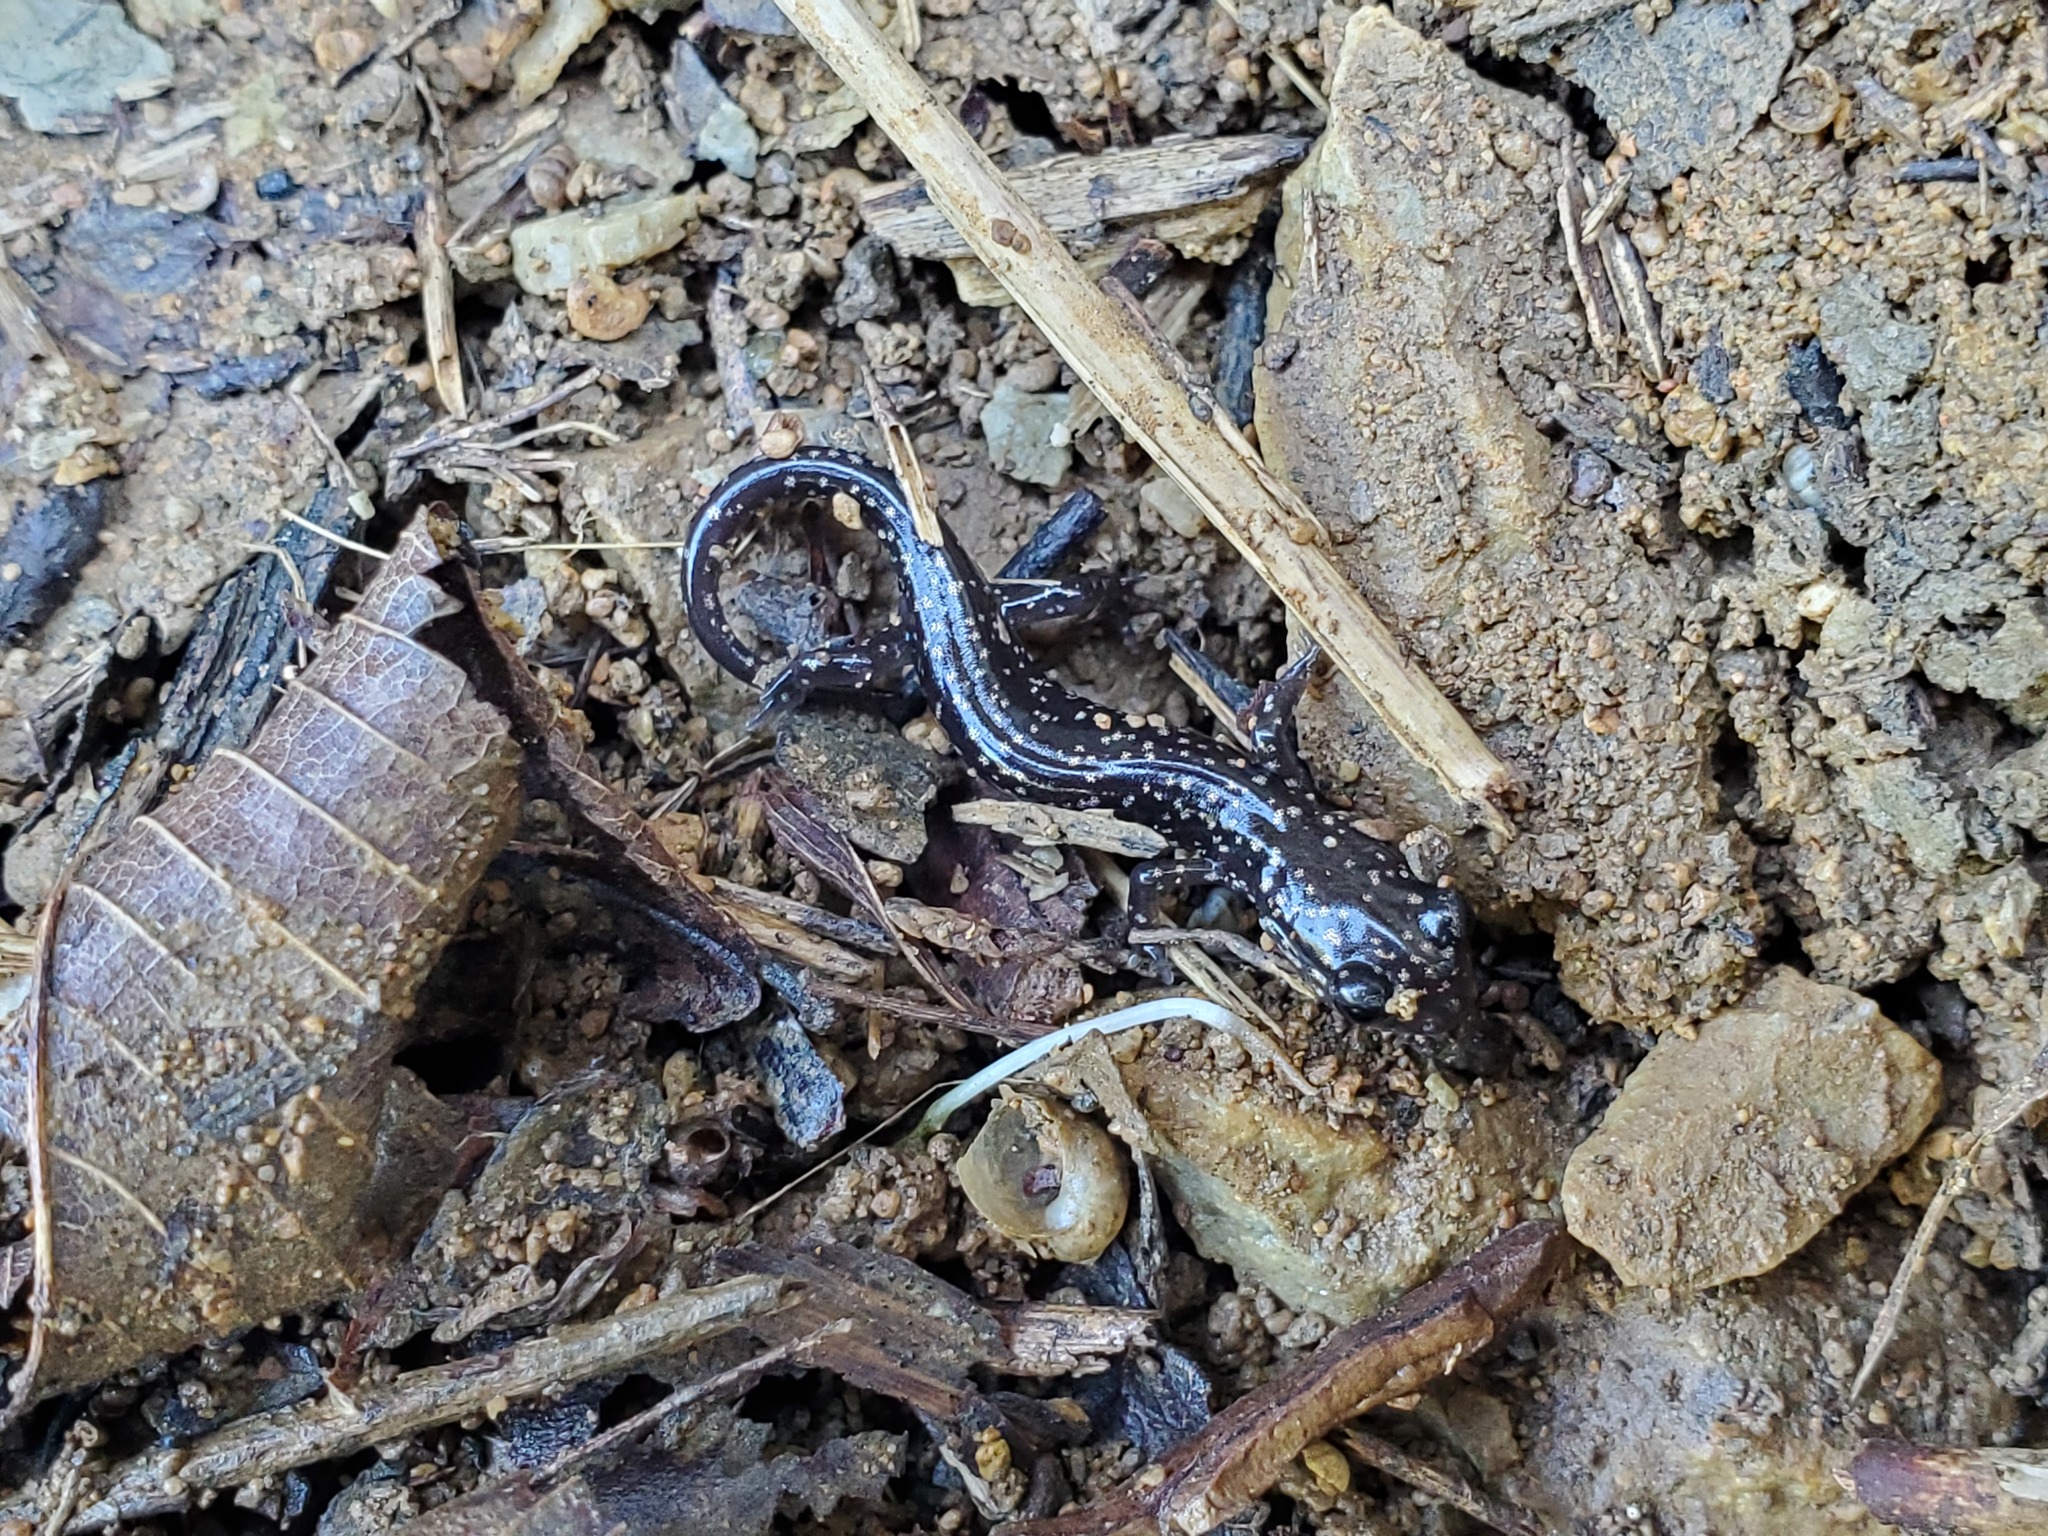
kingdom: Animalia
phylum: Chordata
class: Amphibia
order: Caudata
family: Plethodontidae
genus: Plethodon
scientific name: Plethodon mississippi
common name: Mississippi slimy salamander
